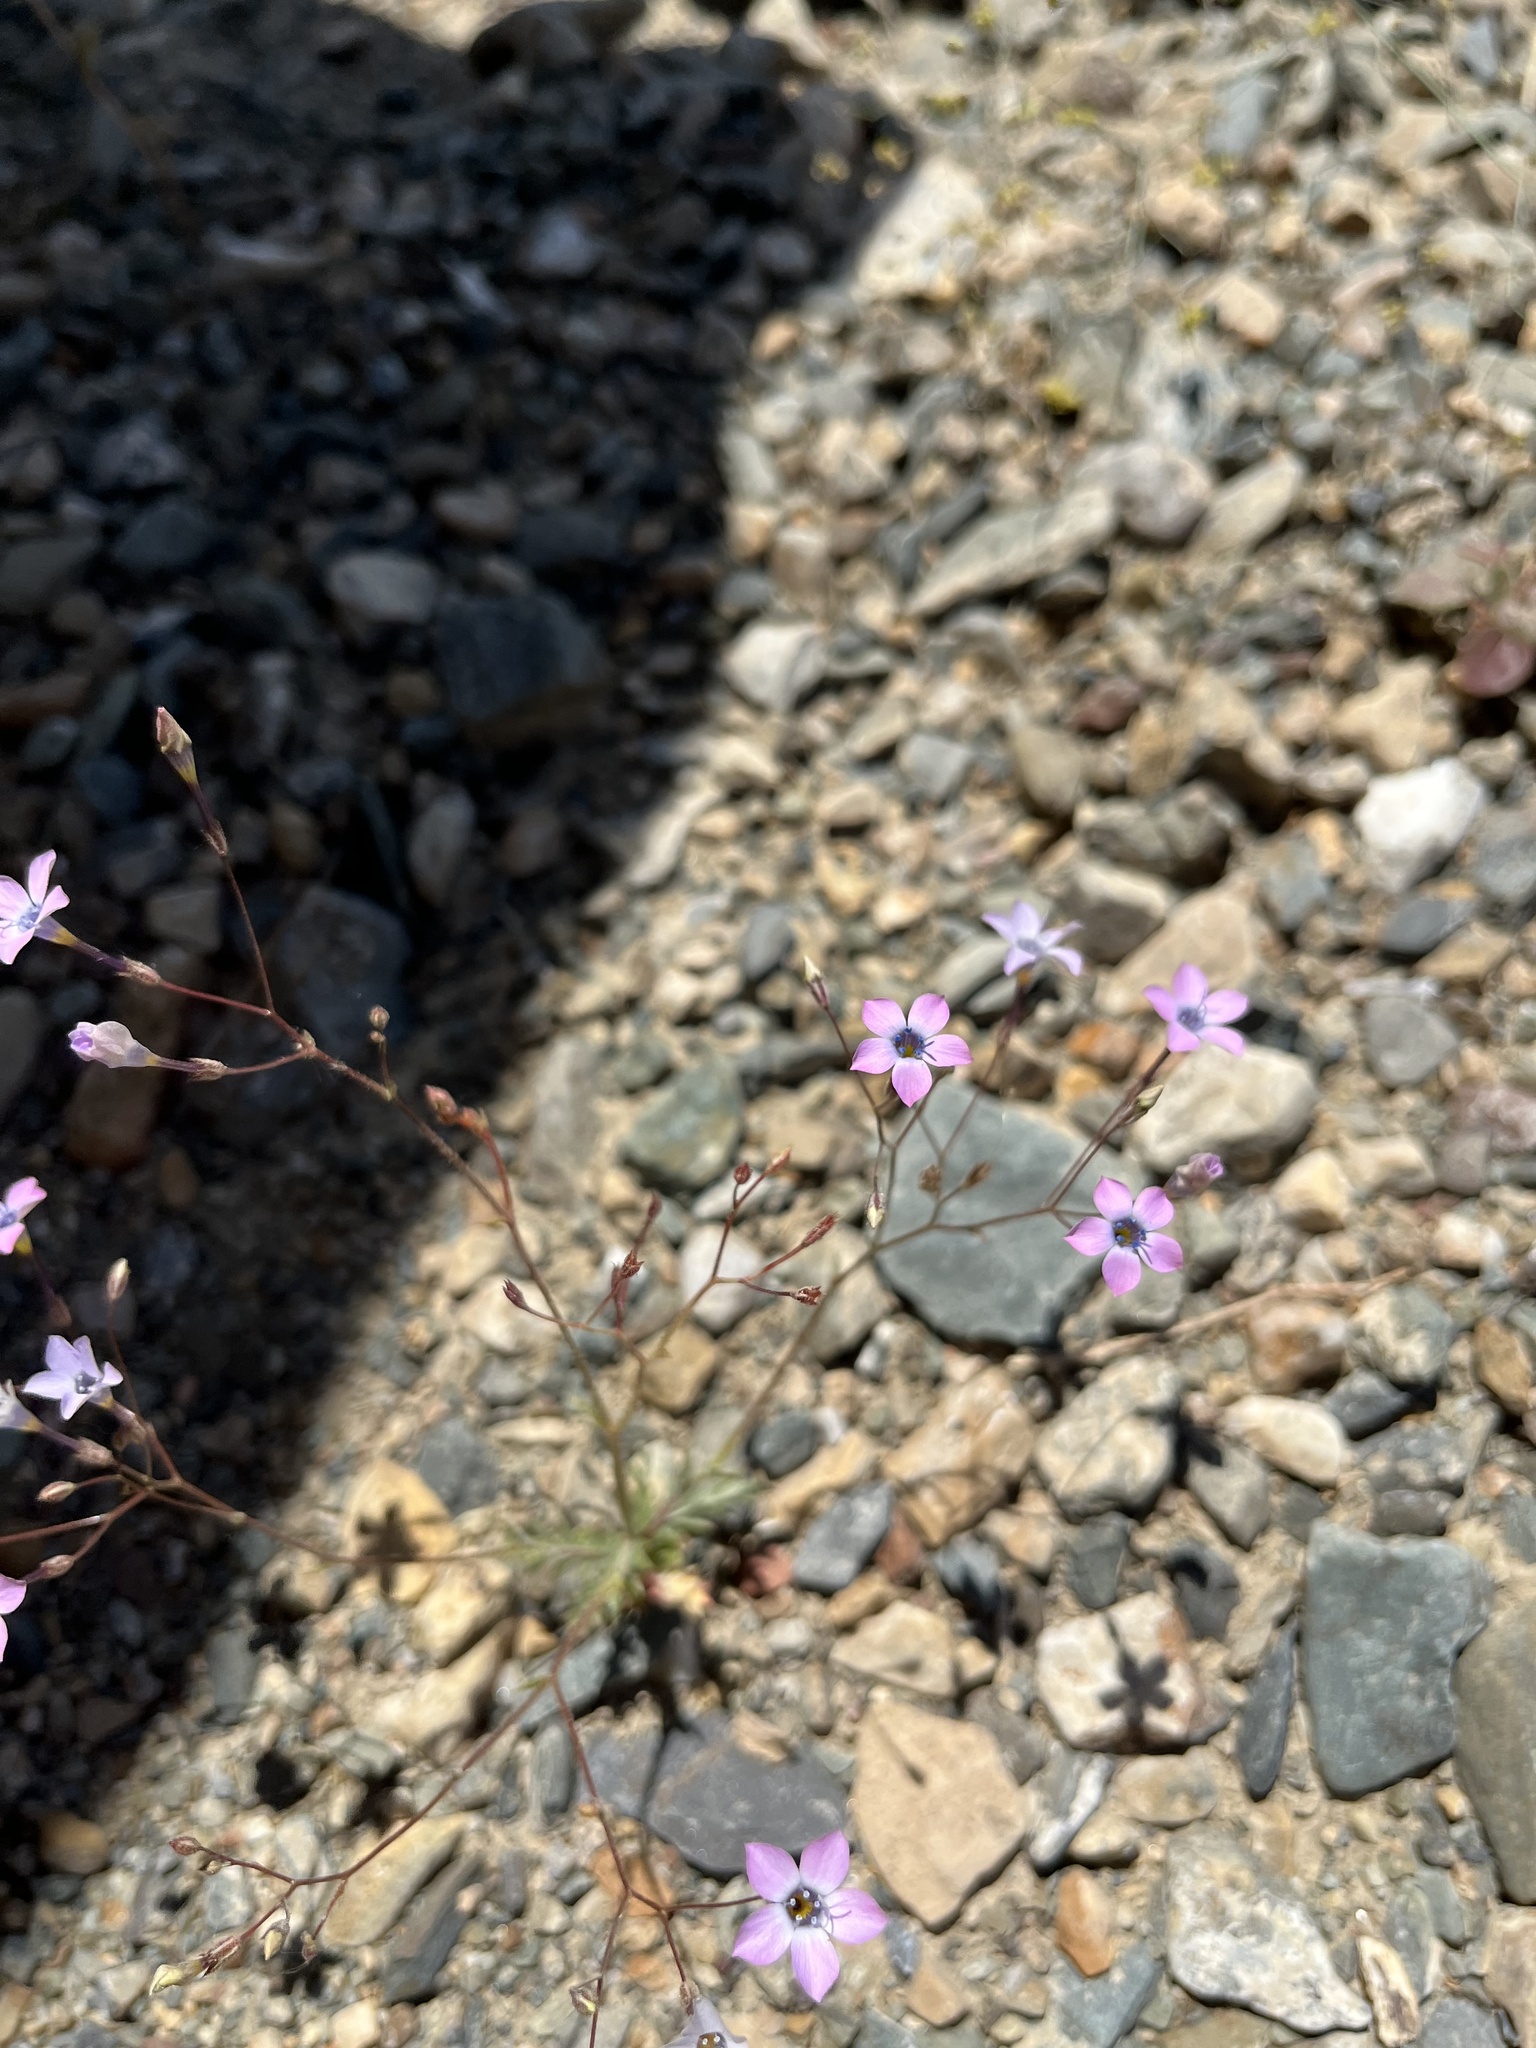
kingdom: Plantae
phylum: Tracheophyta
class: Magnoliopsida
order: Ericales
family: Polemoniaceae
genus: Gilia
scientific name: Gilia cana
